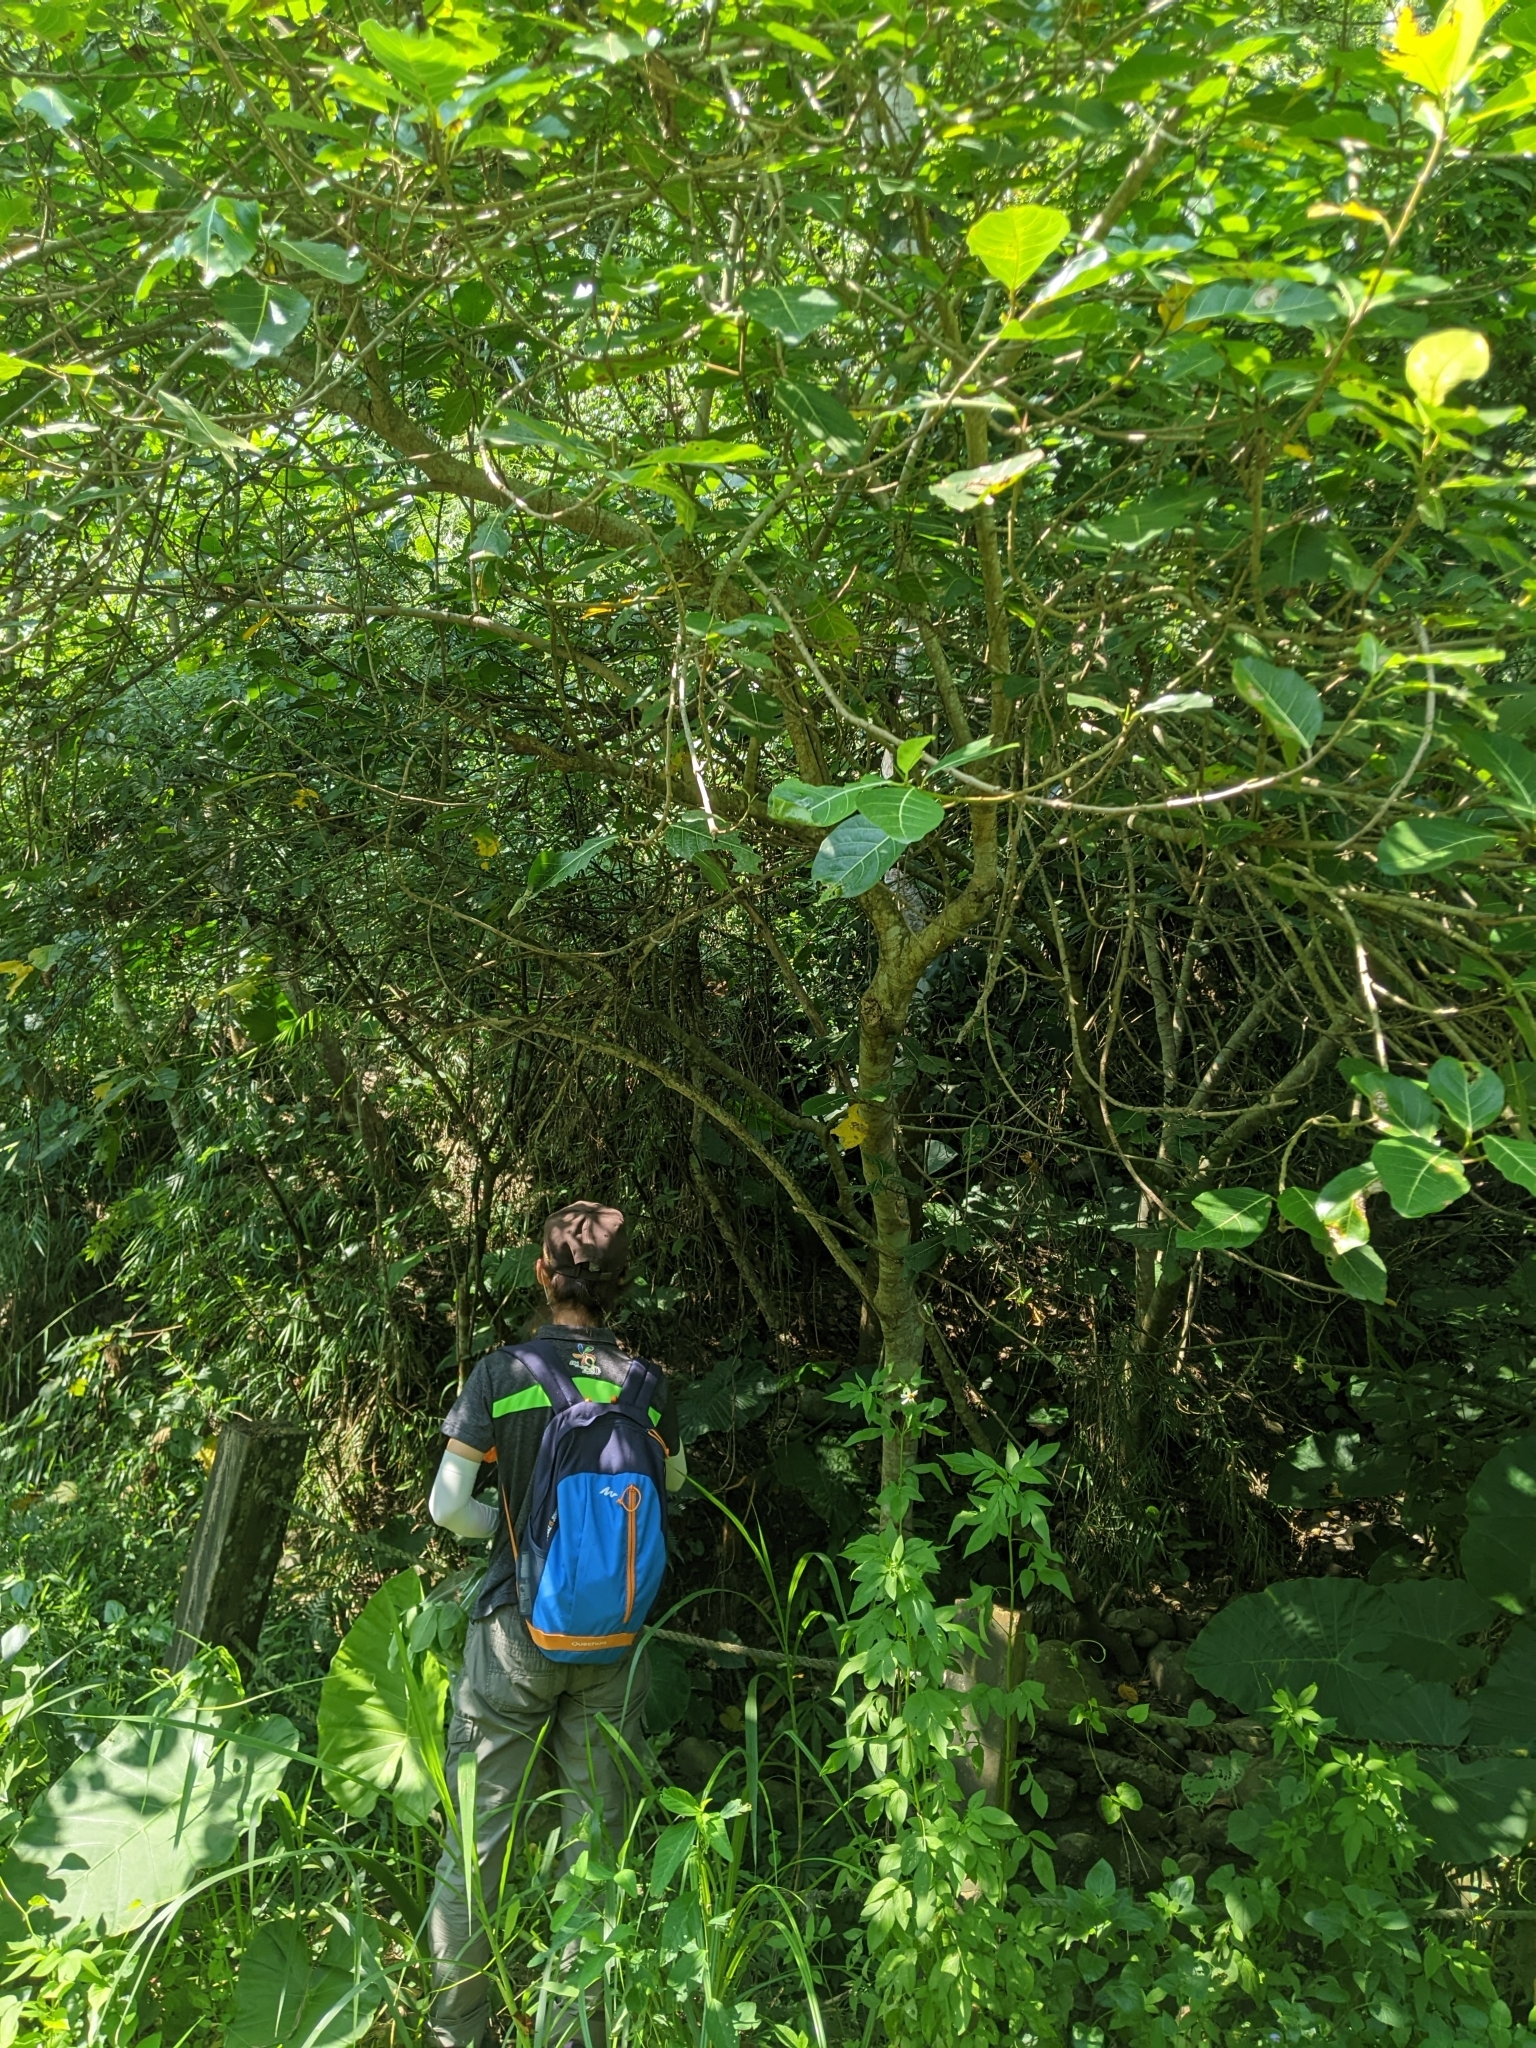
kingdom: Plantae
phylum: Tracheophyta
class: Magnoliopsida
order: Rosales
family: Moraceae
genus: Ficus
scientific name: Ficus septica
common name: Septic fig
